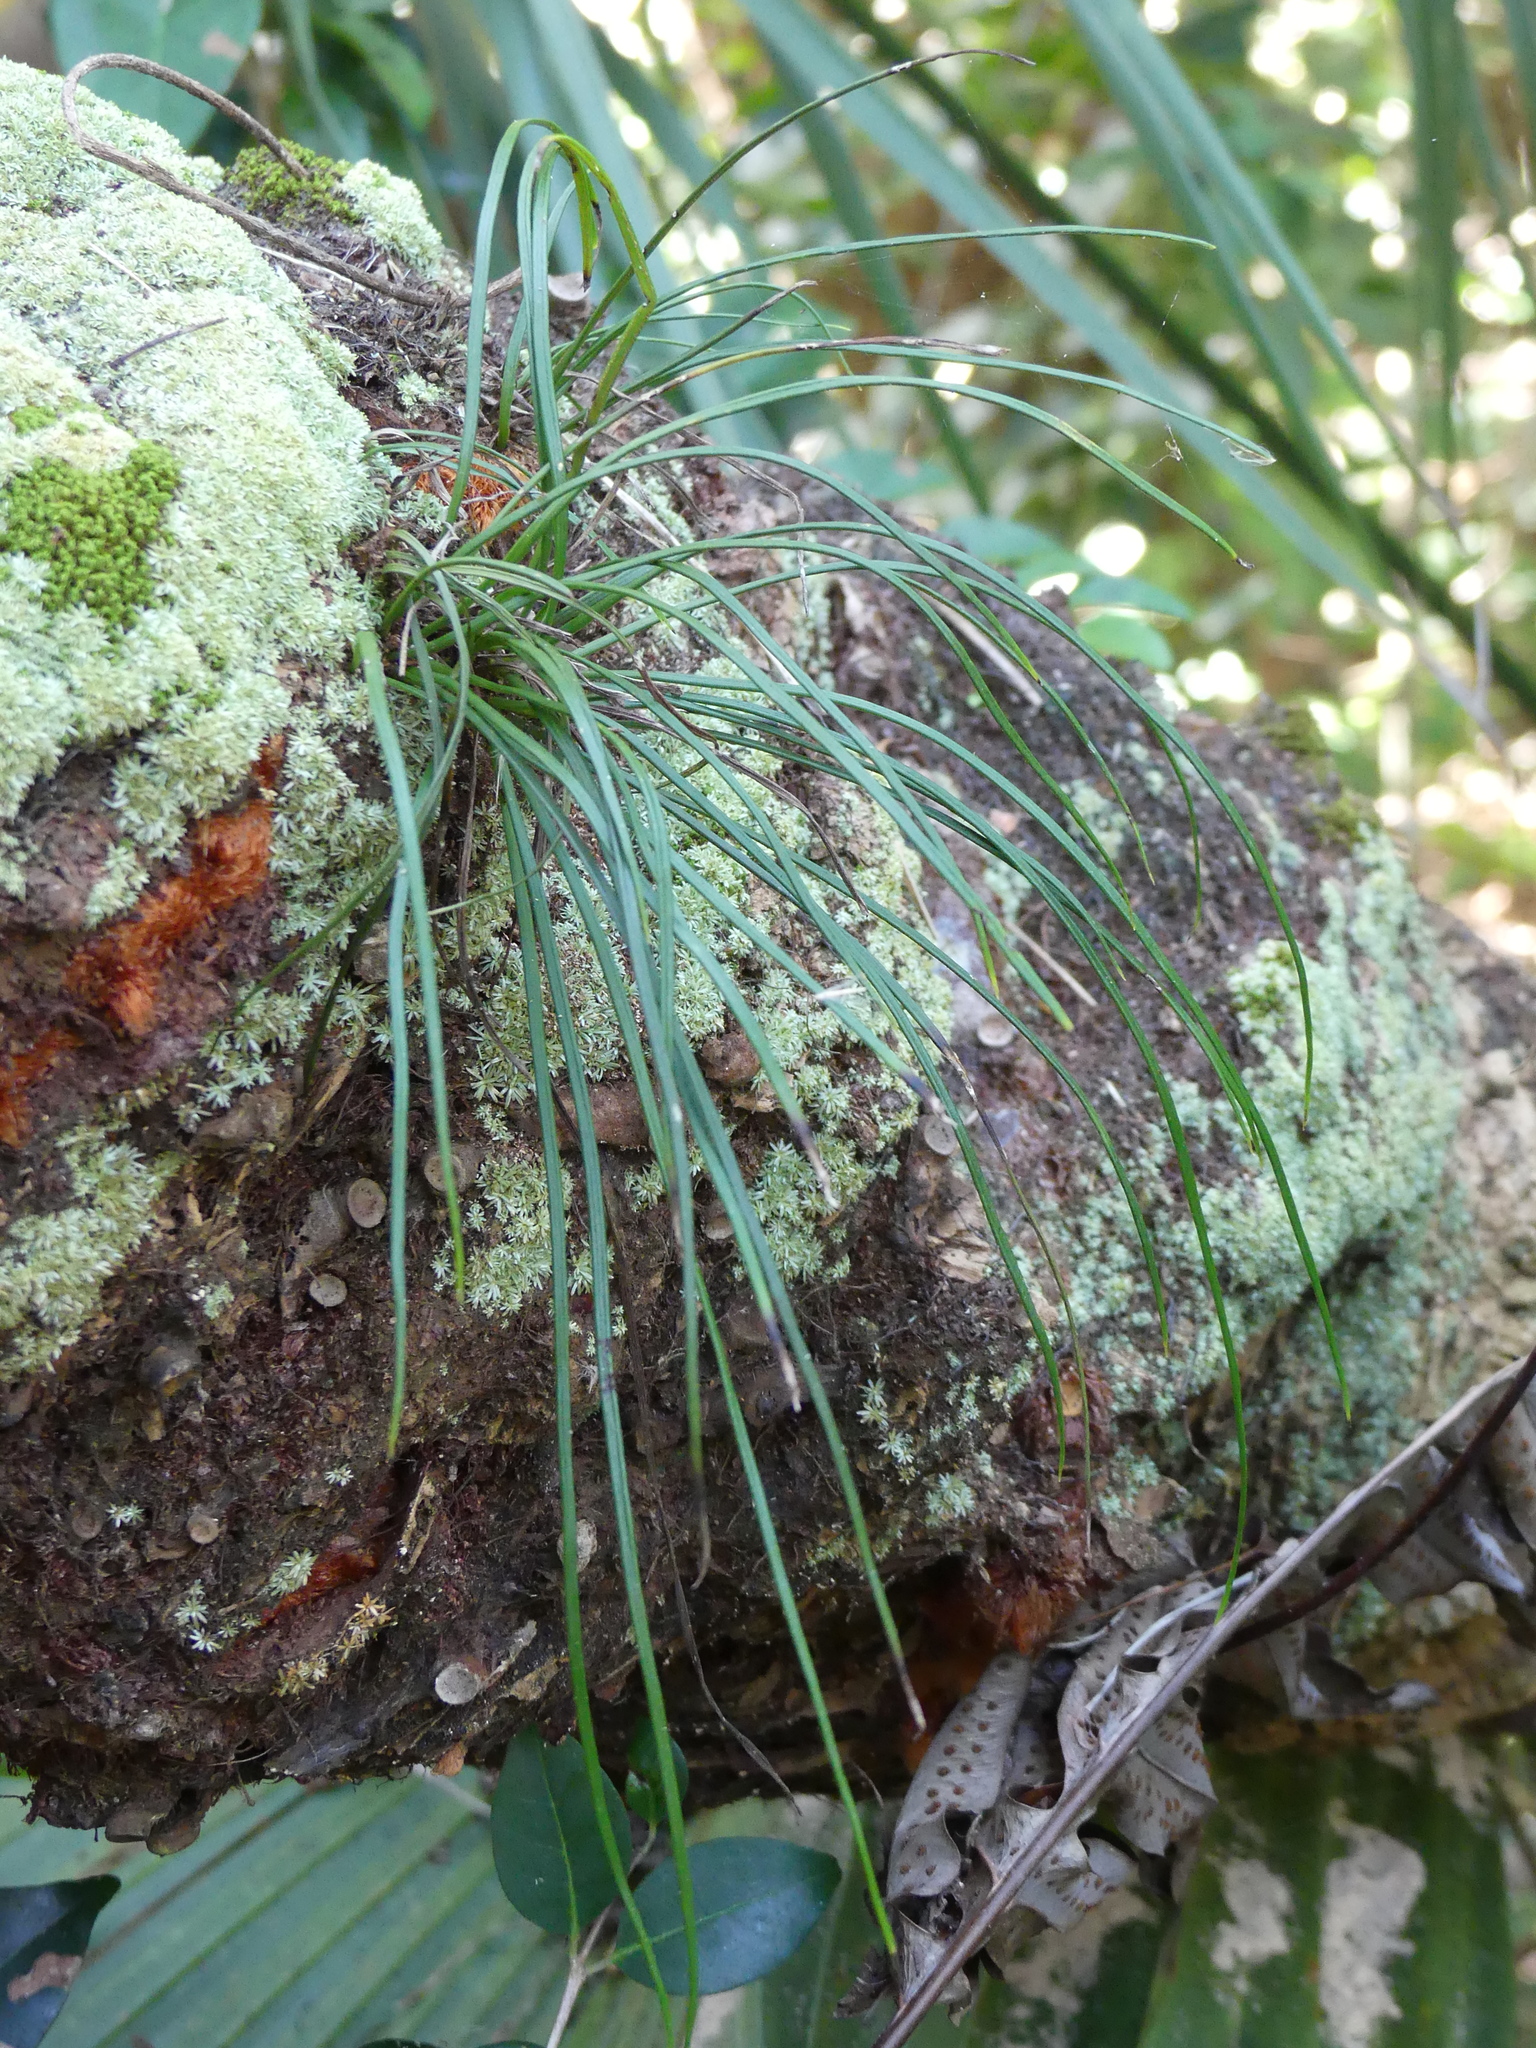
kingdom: Plantae
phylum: Tracheophyta
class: Polypodiopsida
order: Polypodiales
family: Pteridaceae
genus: Vittaria
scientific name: Vittaria lineata
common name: Shoestring fern
